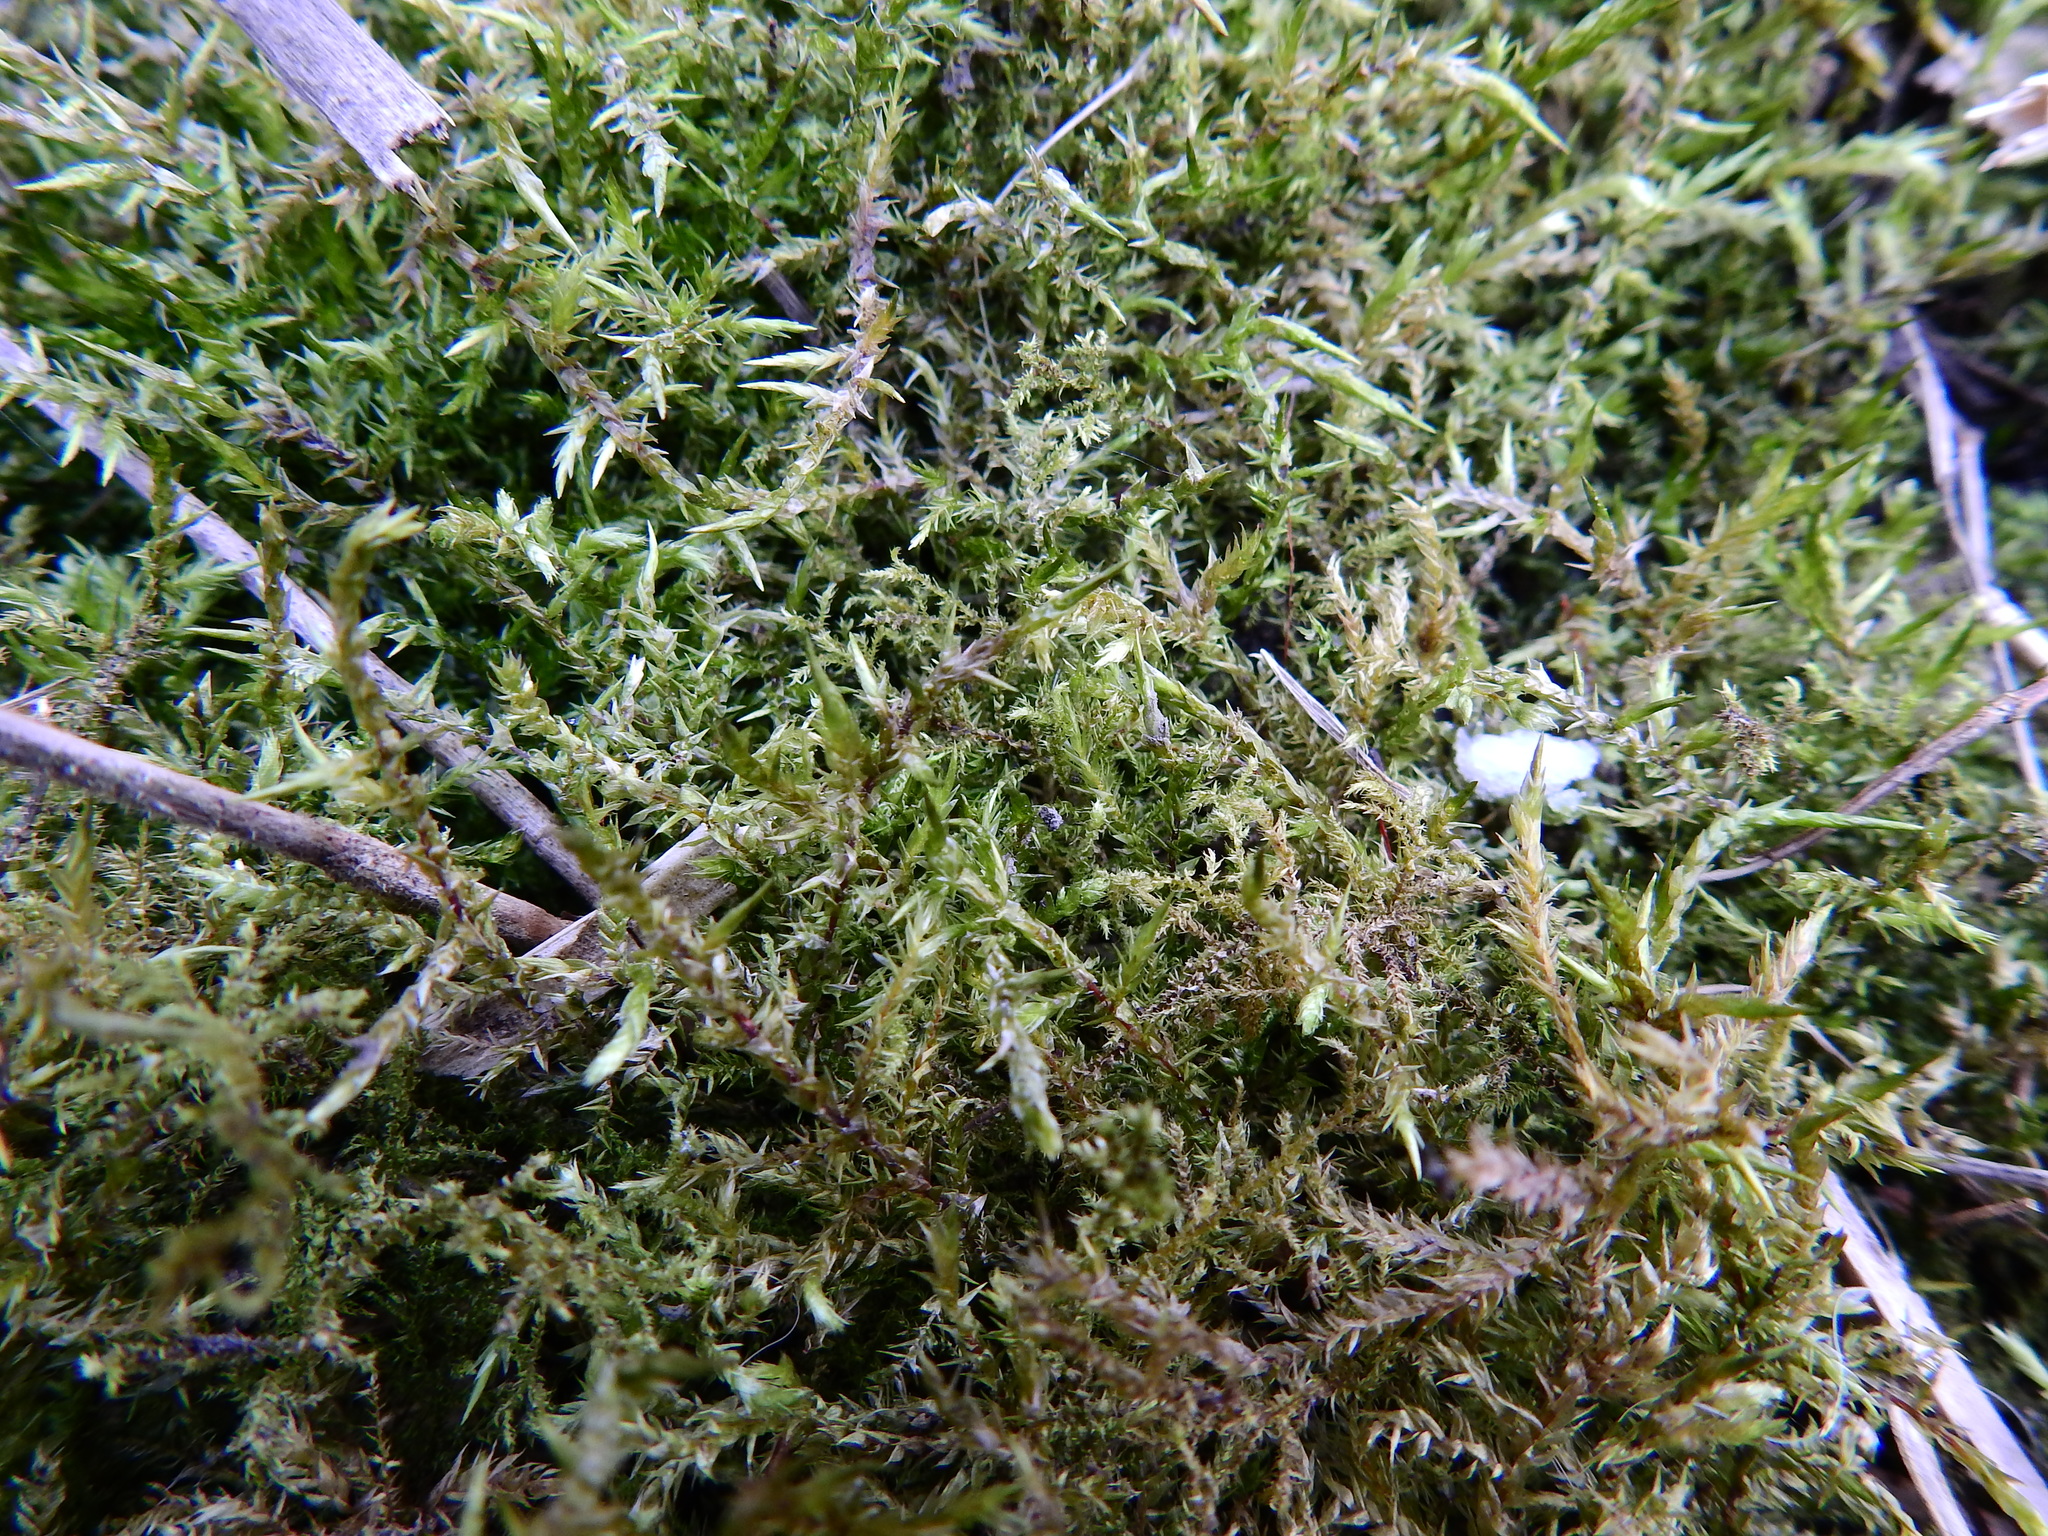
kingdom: Plantae
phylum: Bryophyta
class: Bryopsida
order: Hypnales
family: Pylaisiaceae
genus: Calliergonella
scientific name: Calliergonella cuspidata
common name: Common large wetland moss
